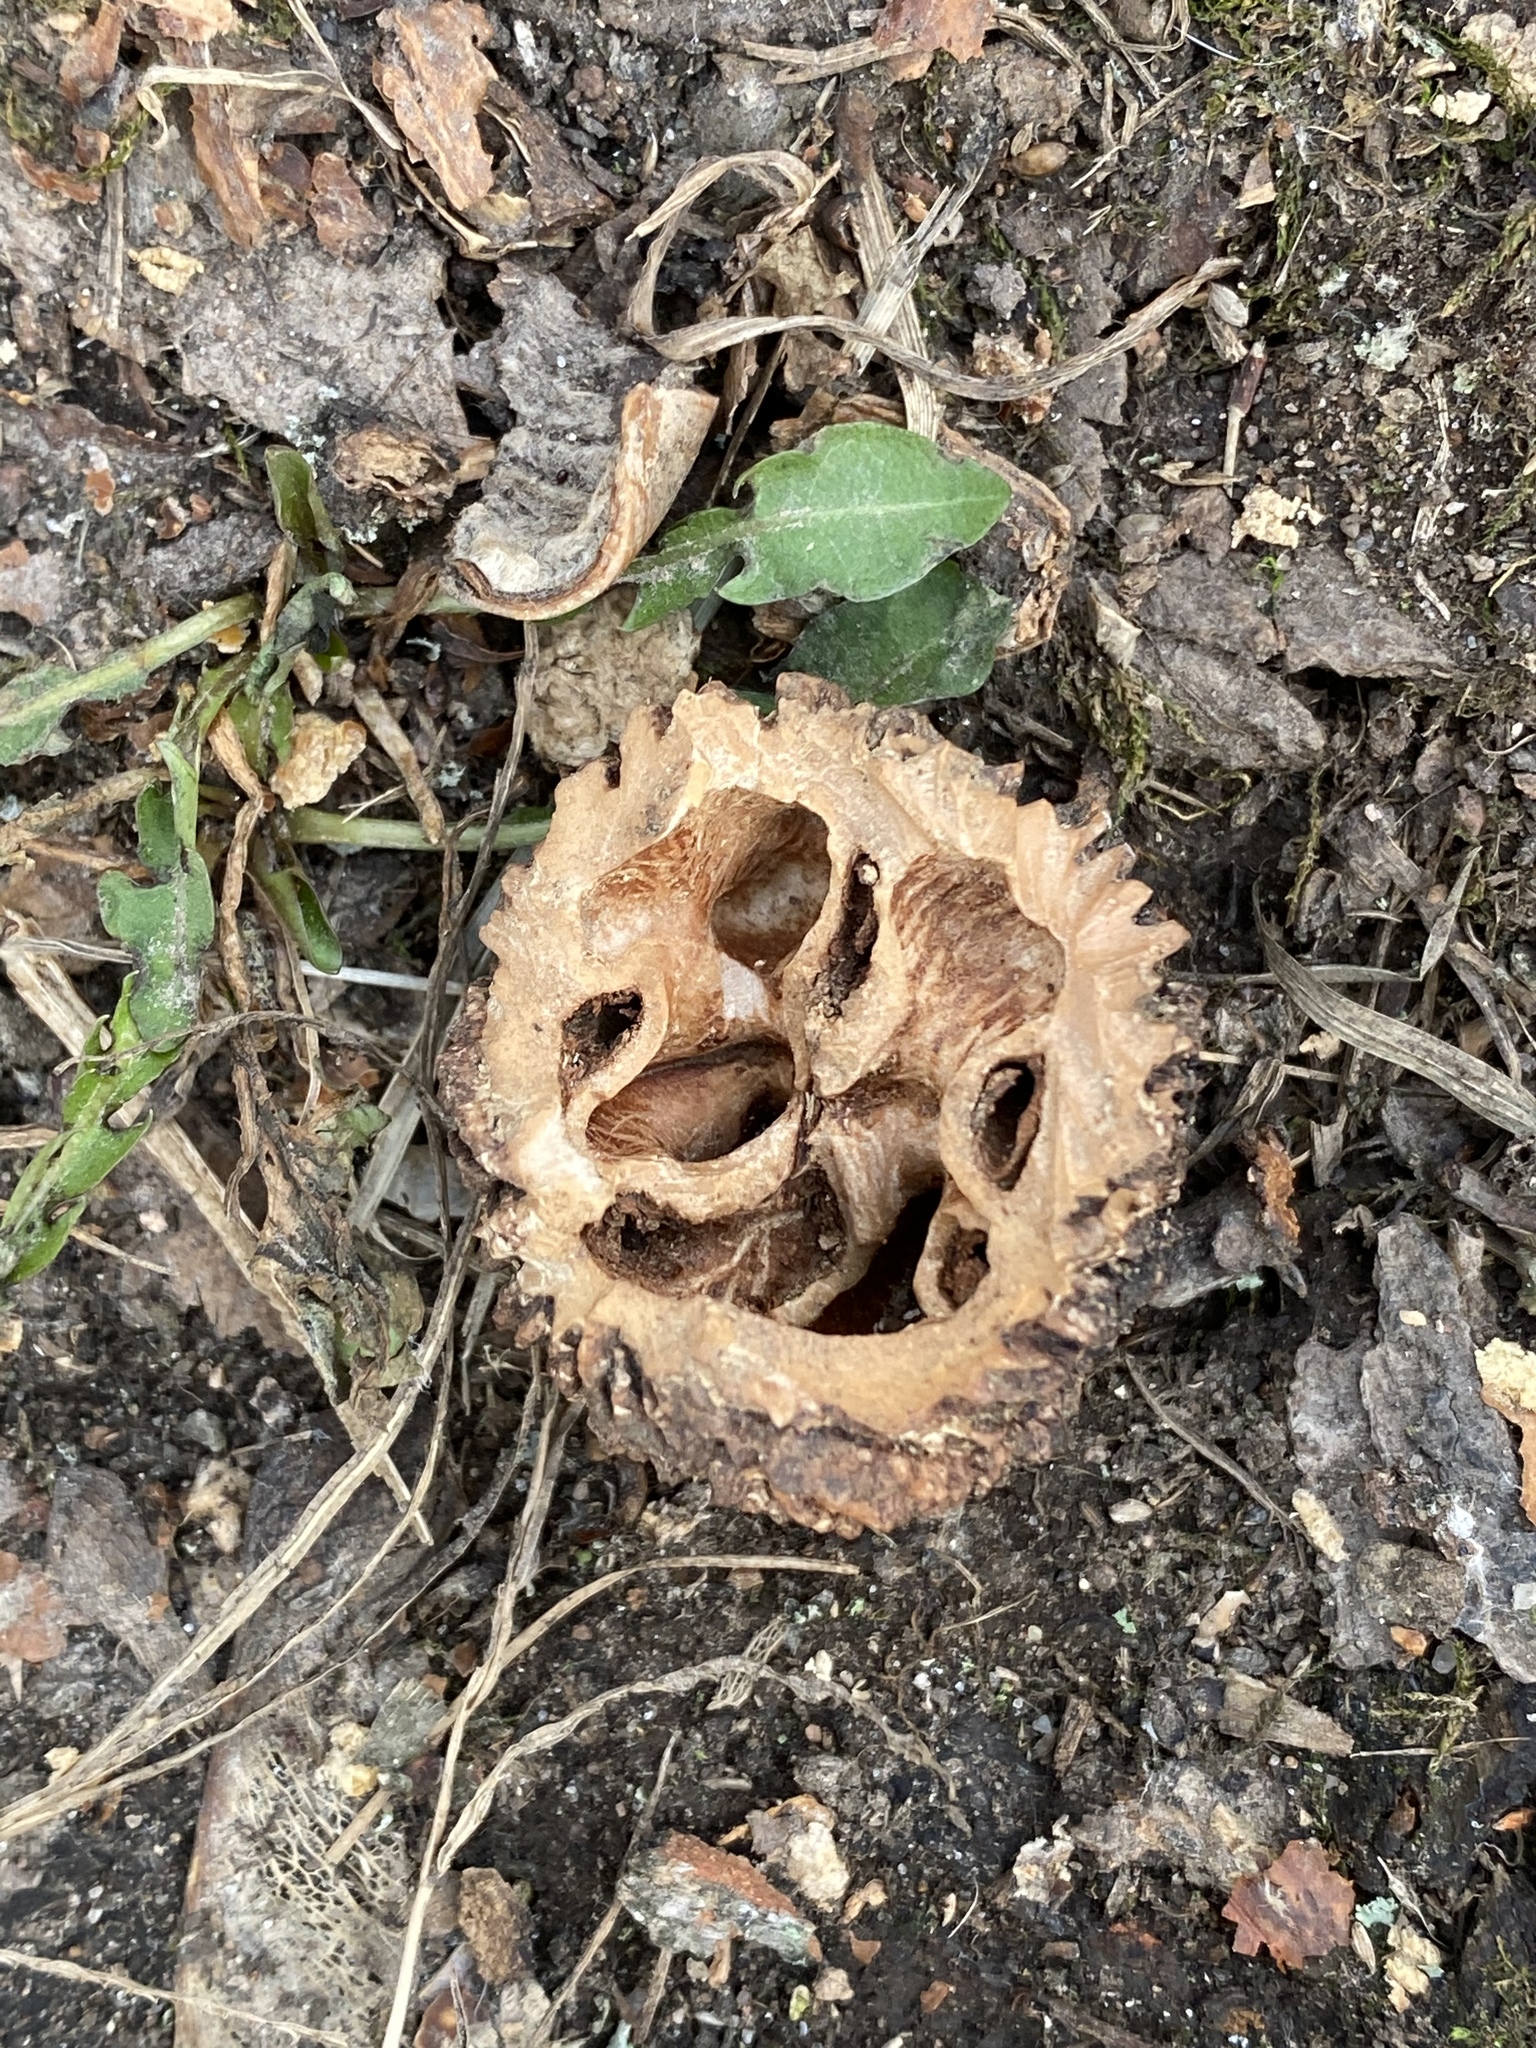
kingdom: Plantae
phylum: Tracheophyta
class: Magnoliopsida
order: Fagales
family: Juglandaceae
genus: Juglans
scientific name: Juglans nigra
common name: Black walnut
